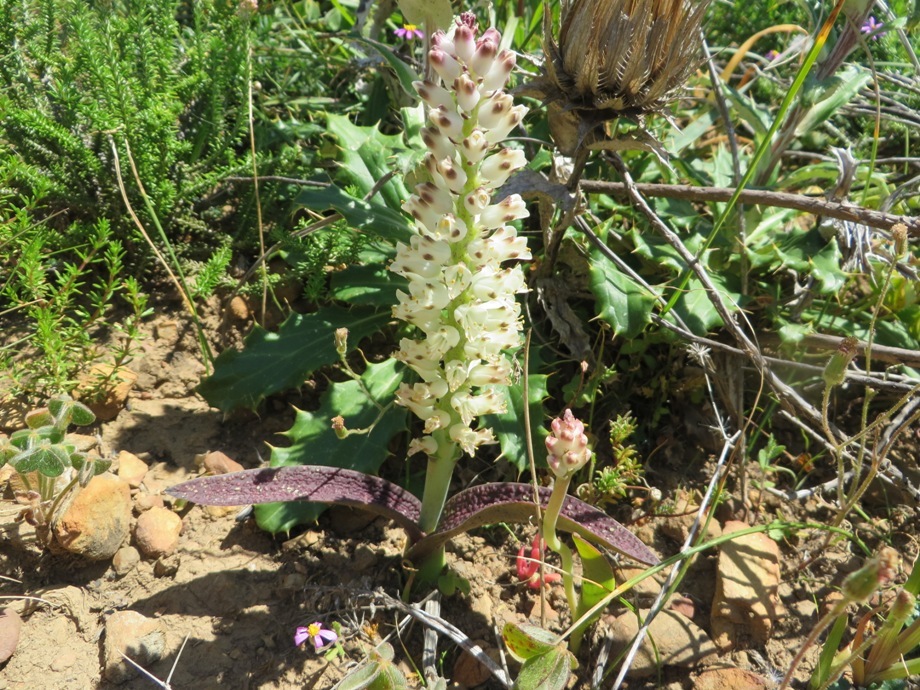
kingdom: Plantae
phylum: Tracheophyta
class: Liliopsida
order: Asparagales
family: Asparagaceae
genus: Lachenalia
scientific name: Lachenalia pallida
